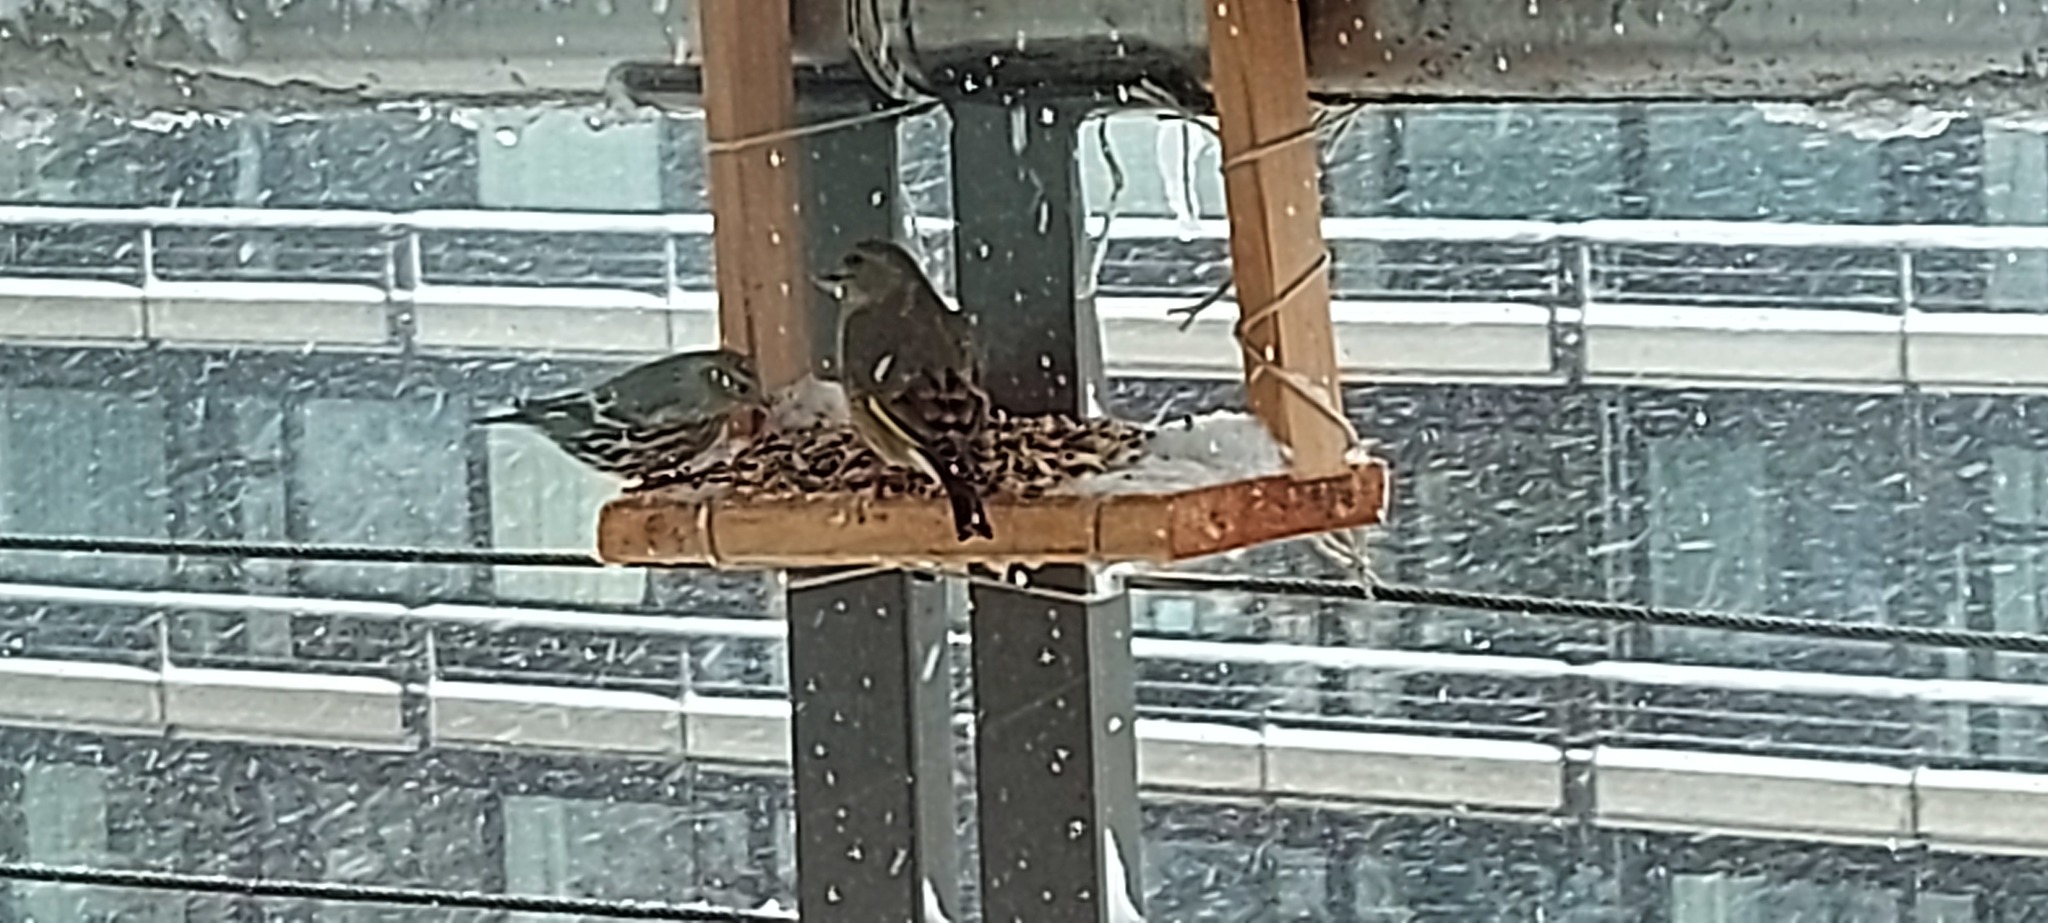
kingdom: Plantae
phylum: Tracheophyta
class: Liliopsida
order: Poales
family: Poaceae
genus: Chloris
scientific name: Chloris chloris
